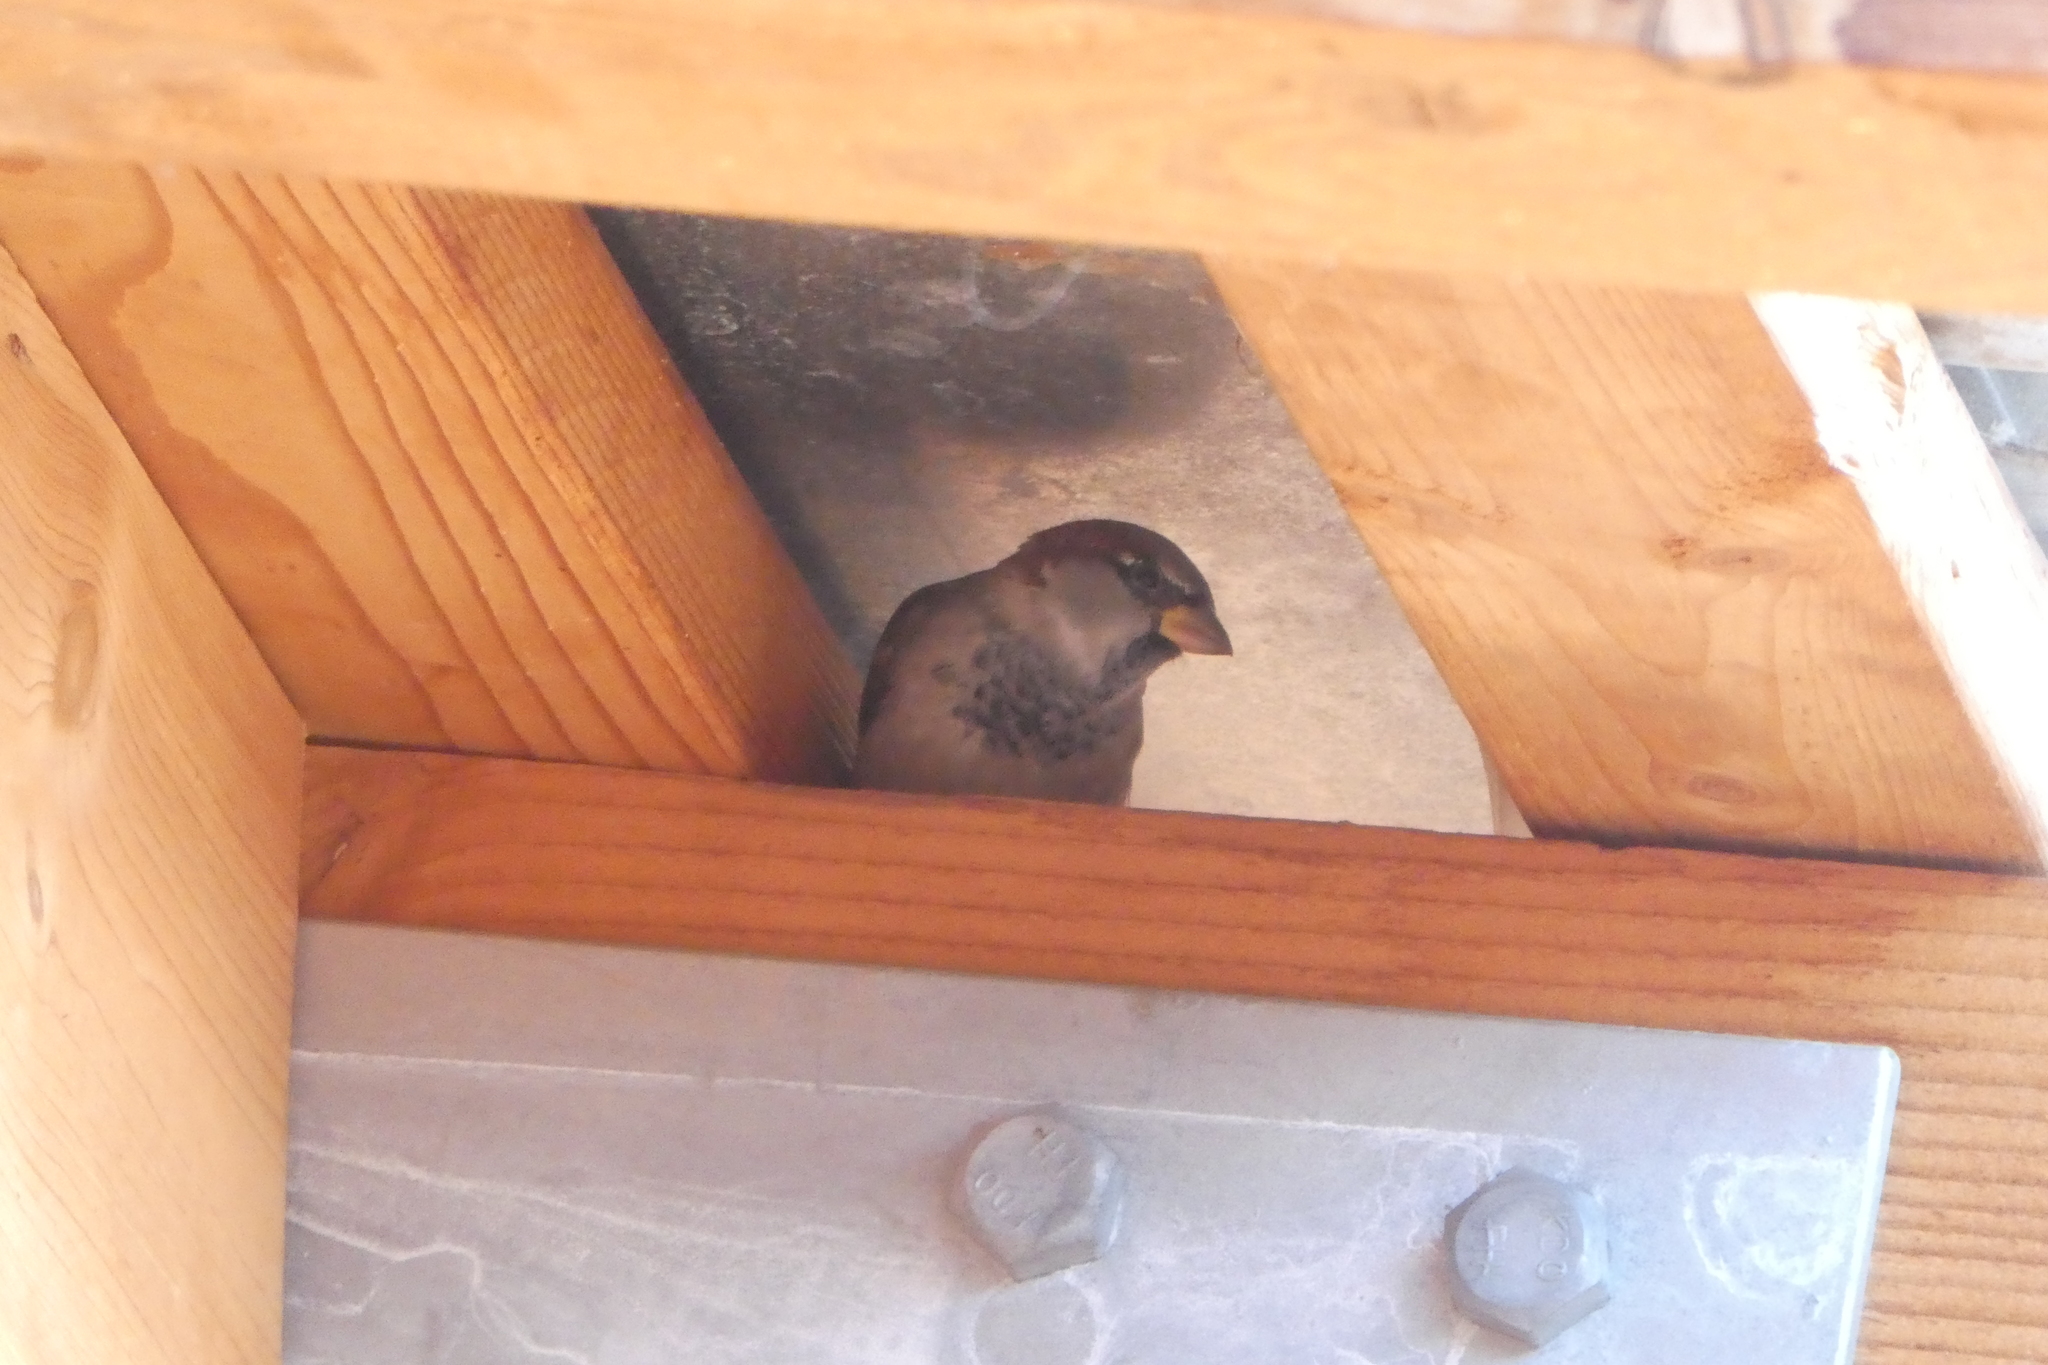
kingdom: Animalia
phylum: Chordata
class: Aves
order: Passeriformes
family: Passeridae
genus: Passer
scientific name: Passer domesticus
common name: House sparrow
